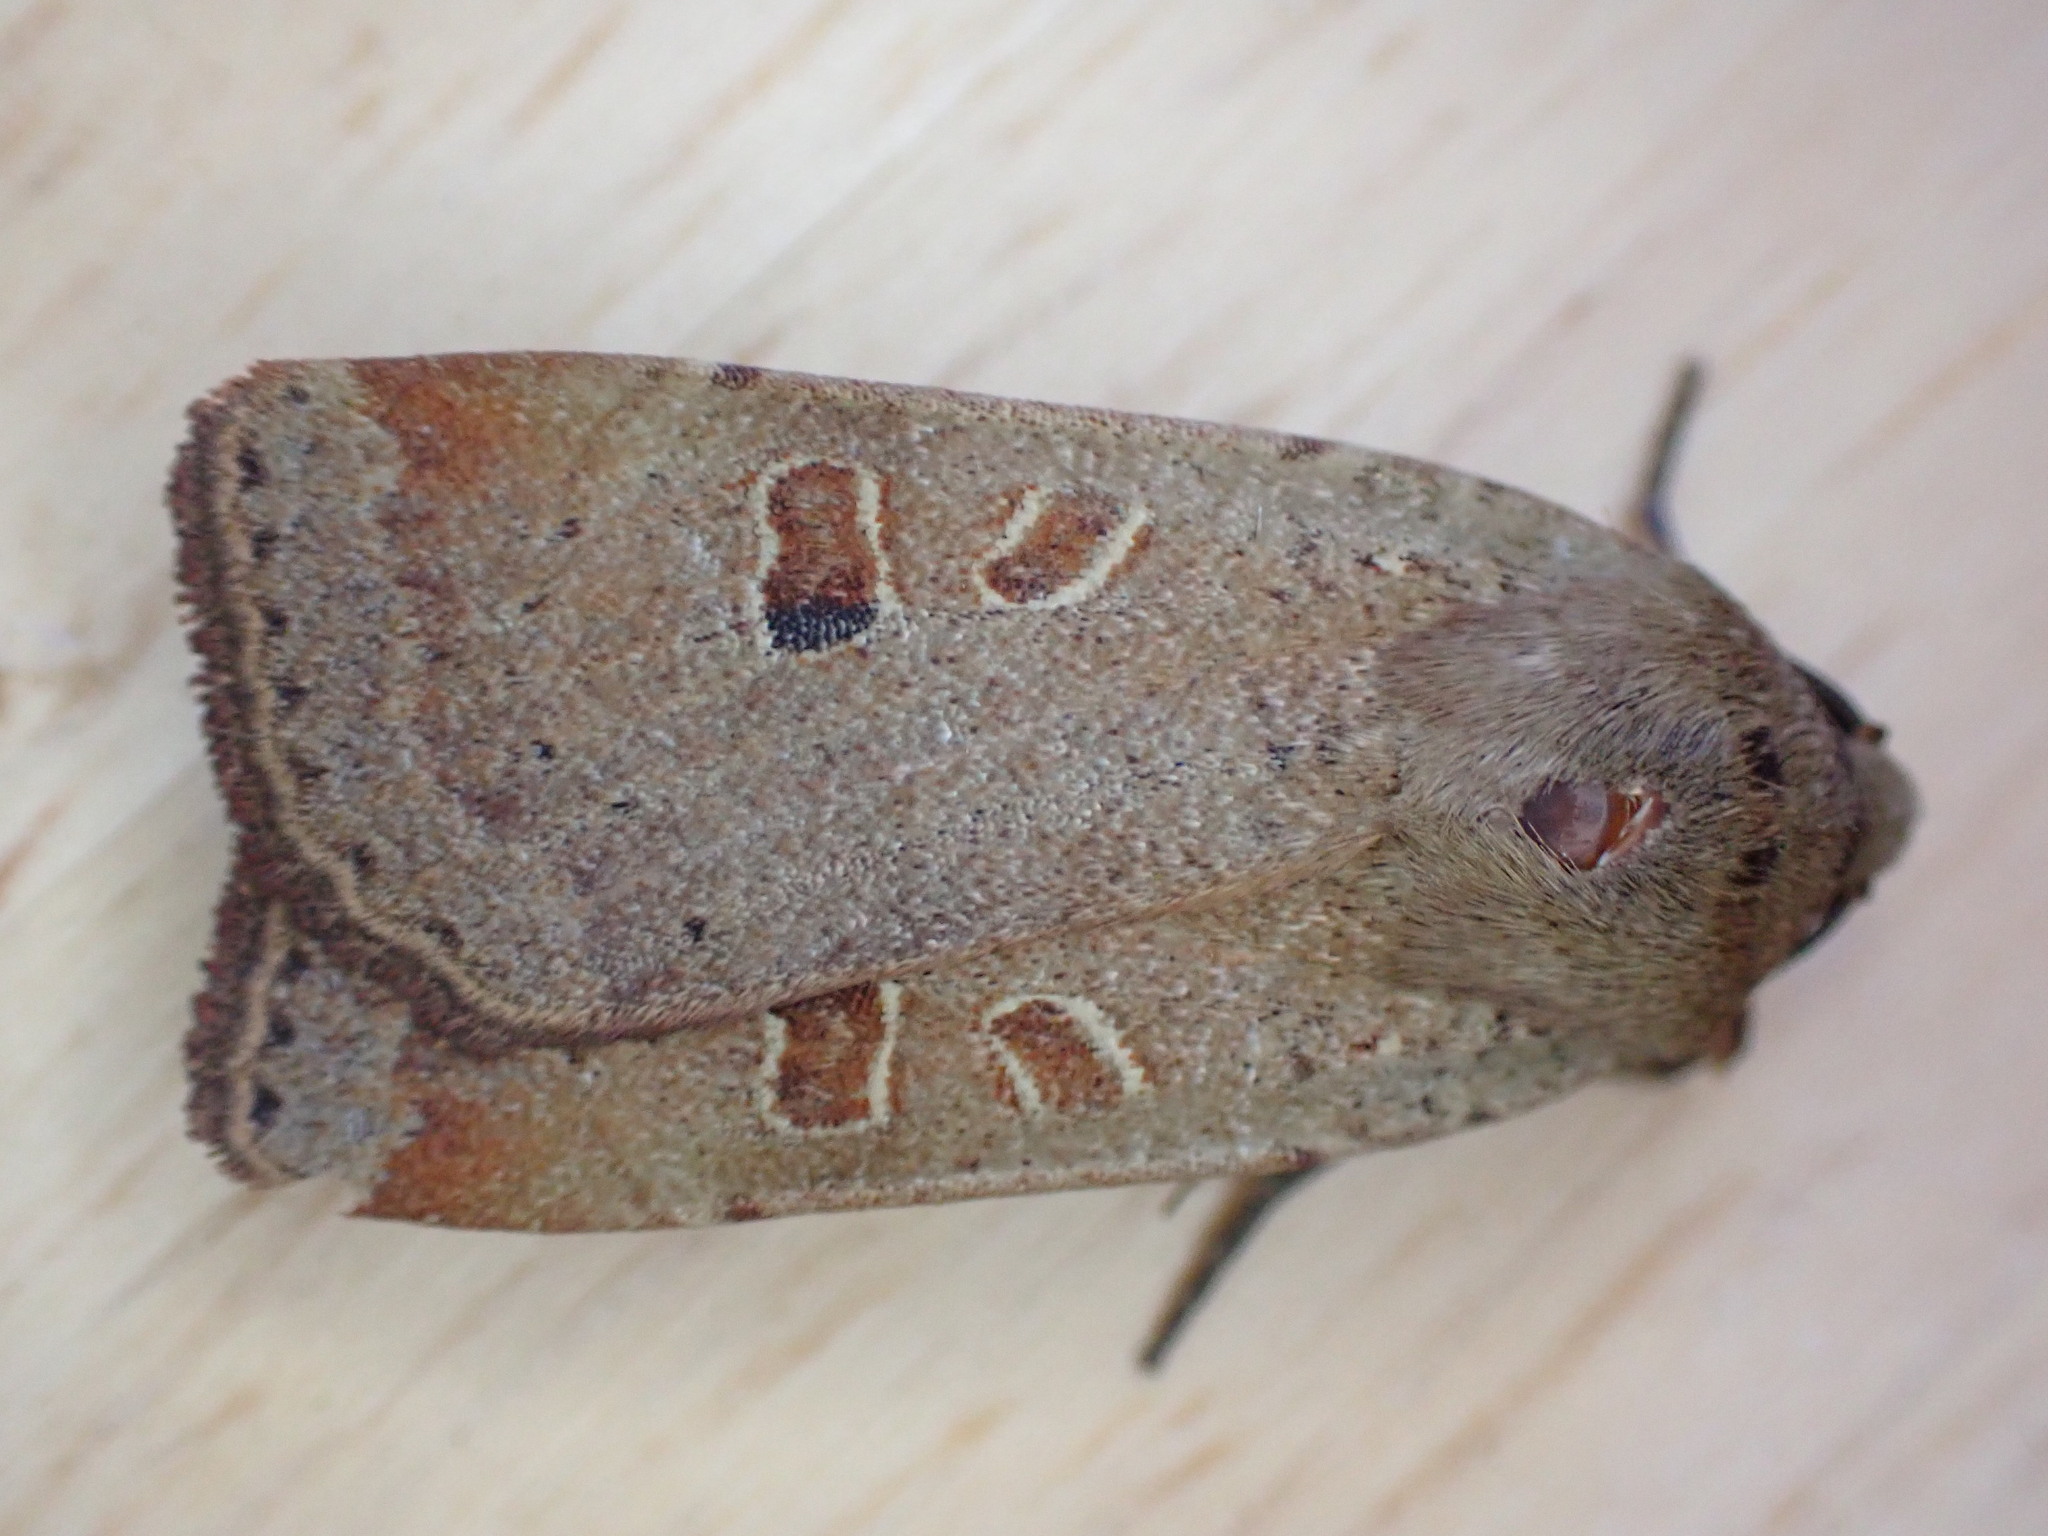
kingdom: Animalia
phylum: Arthropoda
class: Insecta
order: Lepidoptera
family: Noctuidae
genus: Noctua
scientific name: Noctua comes
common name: Lesser yellow underwing
